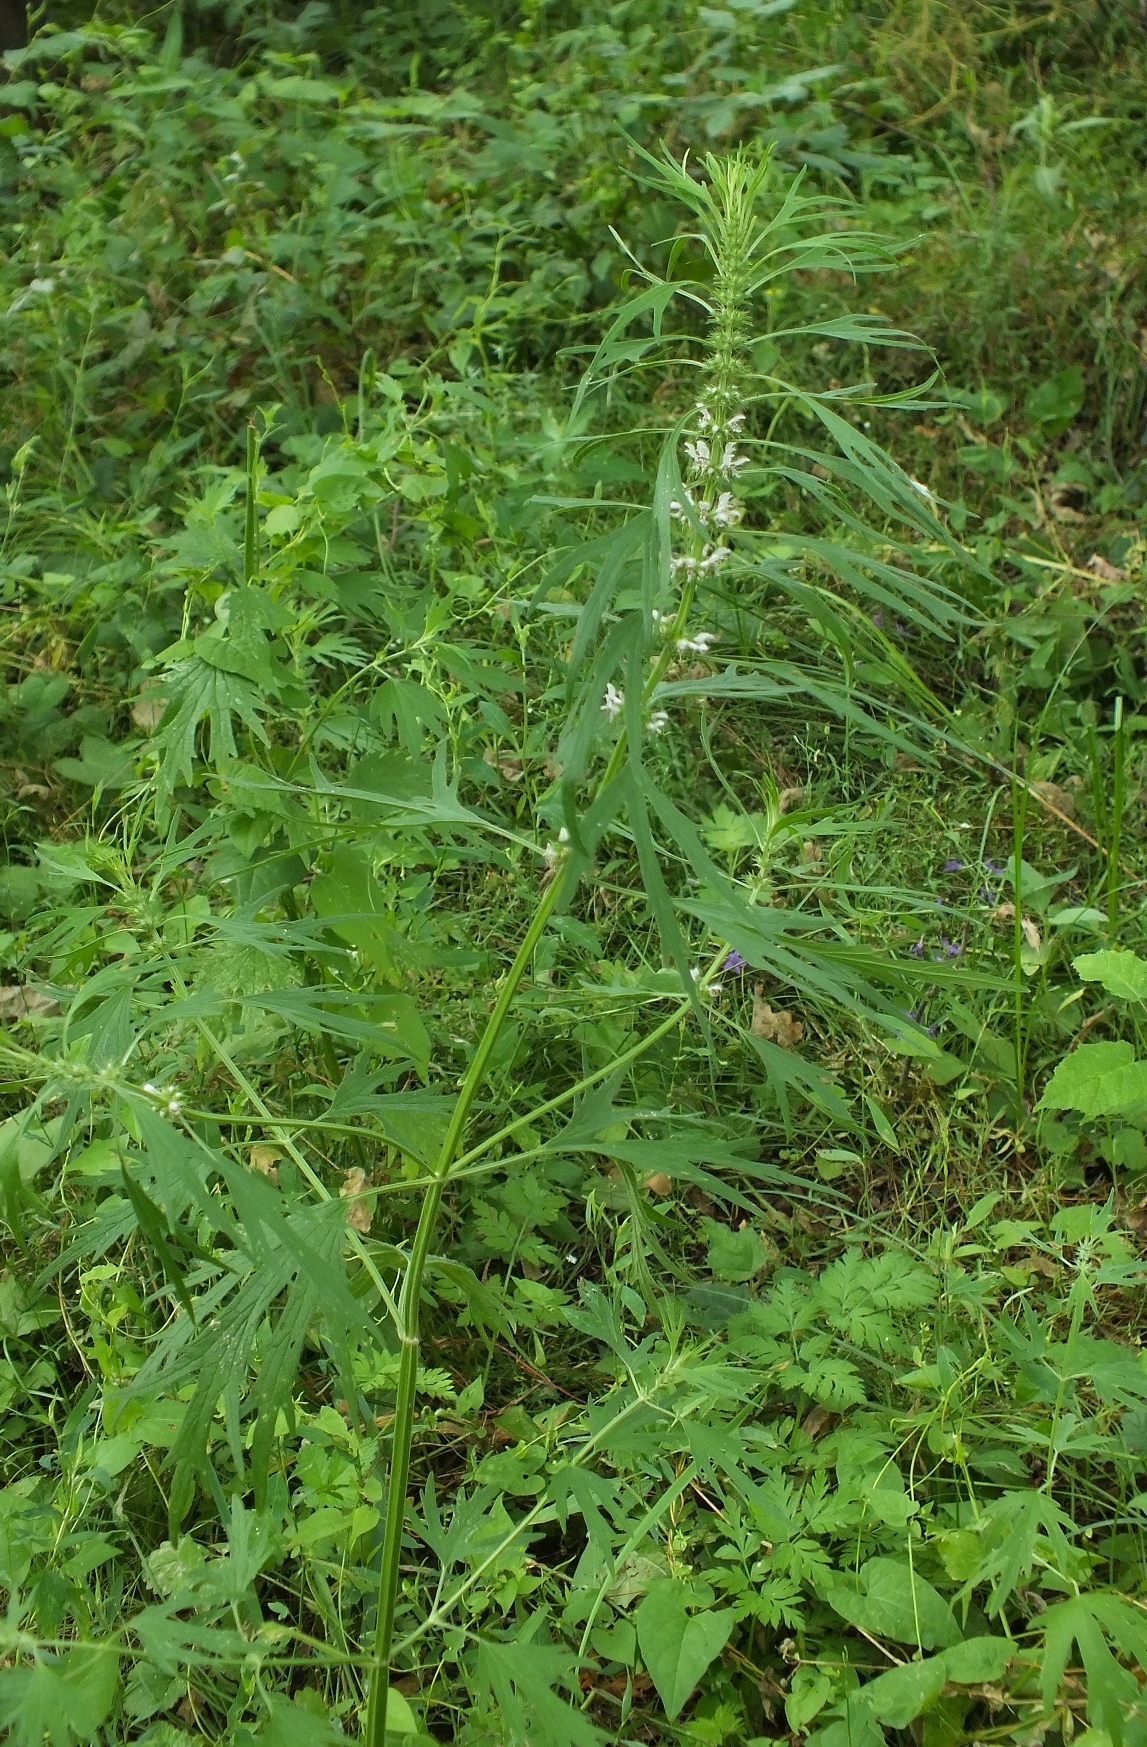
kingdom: Plantae
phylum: Tracheophyta
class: Magnoliopsida
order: Lamiales
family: Lamiaceae
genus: Leonurus
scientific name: Leonurus glaucescens
